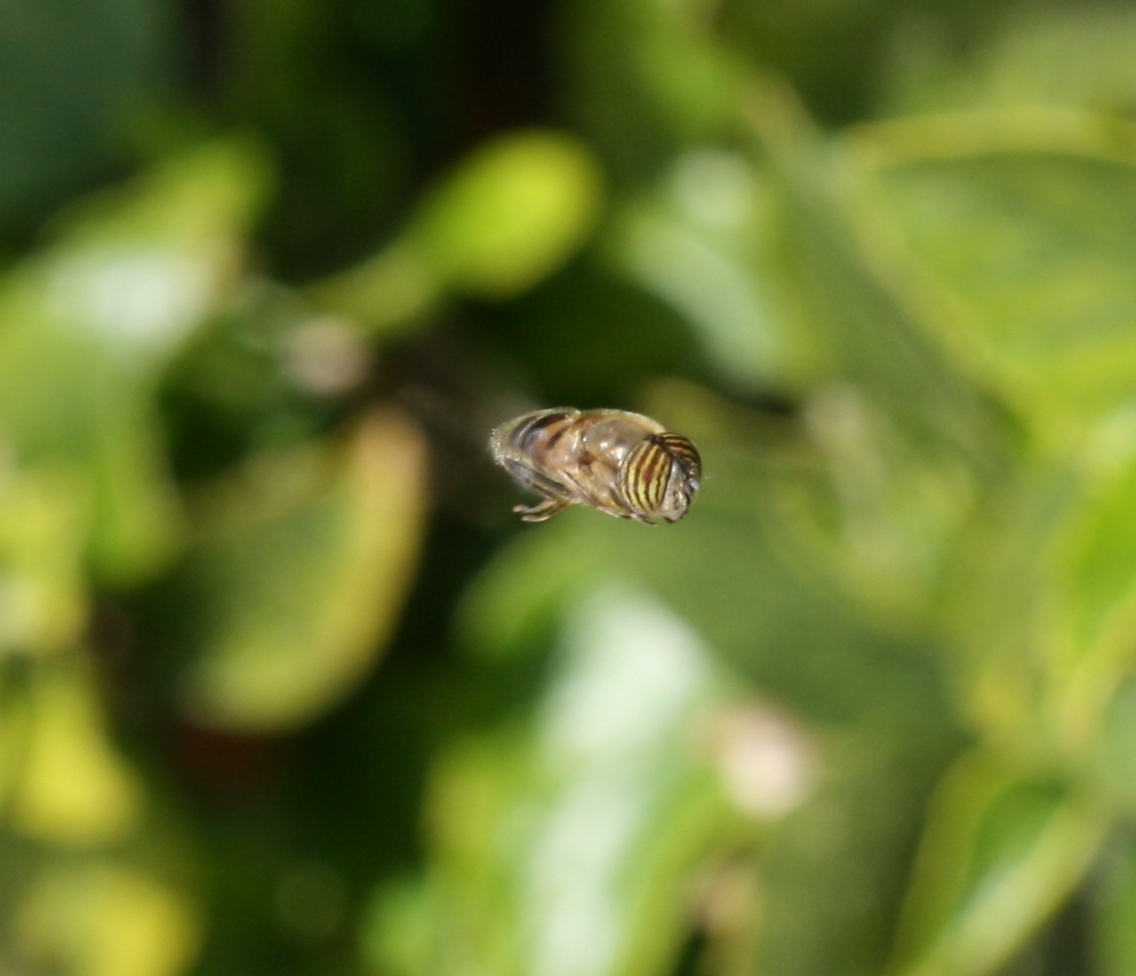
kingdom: Animalia
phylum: Arthropoda
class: Insecta
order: Diptera
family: Syrphidae
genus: Eristalinus
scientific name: Eristalinus taeniops
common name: Syrphid fly
